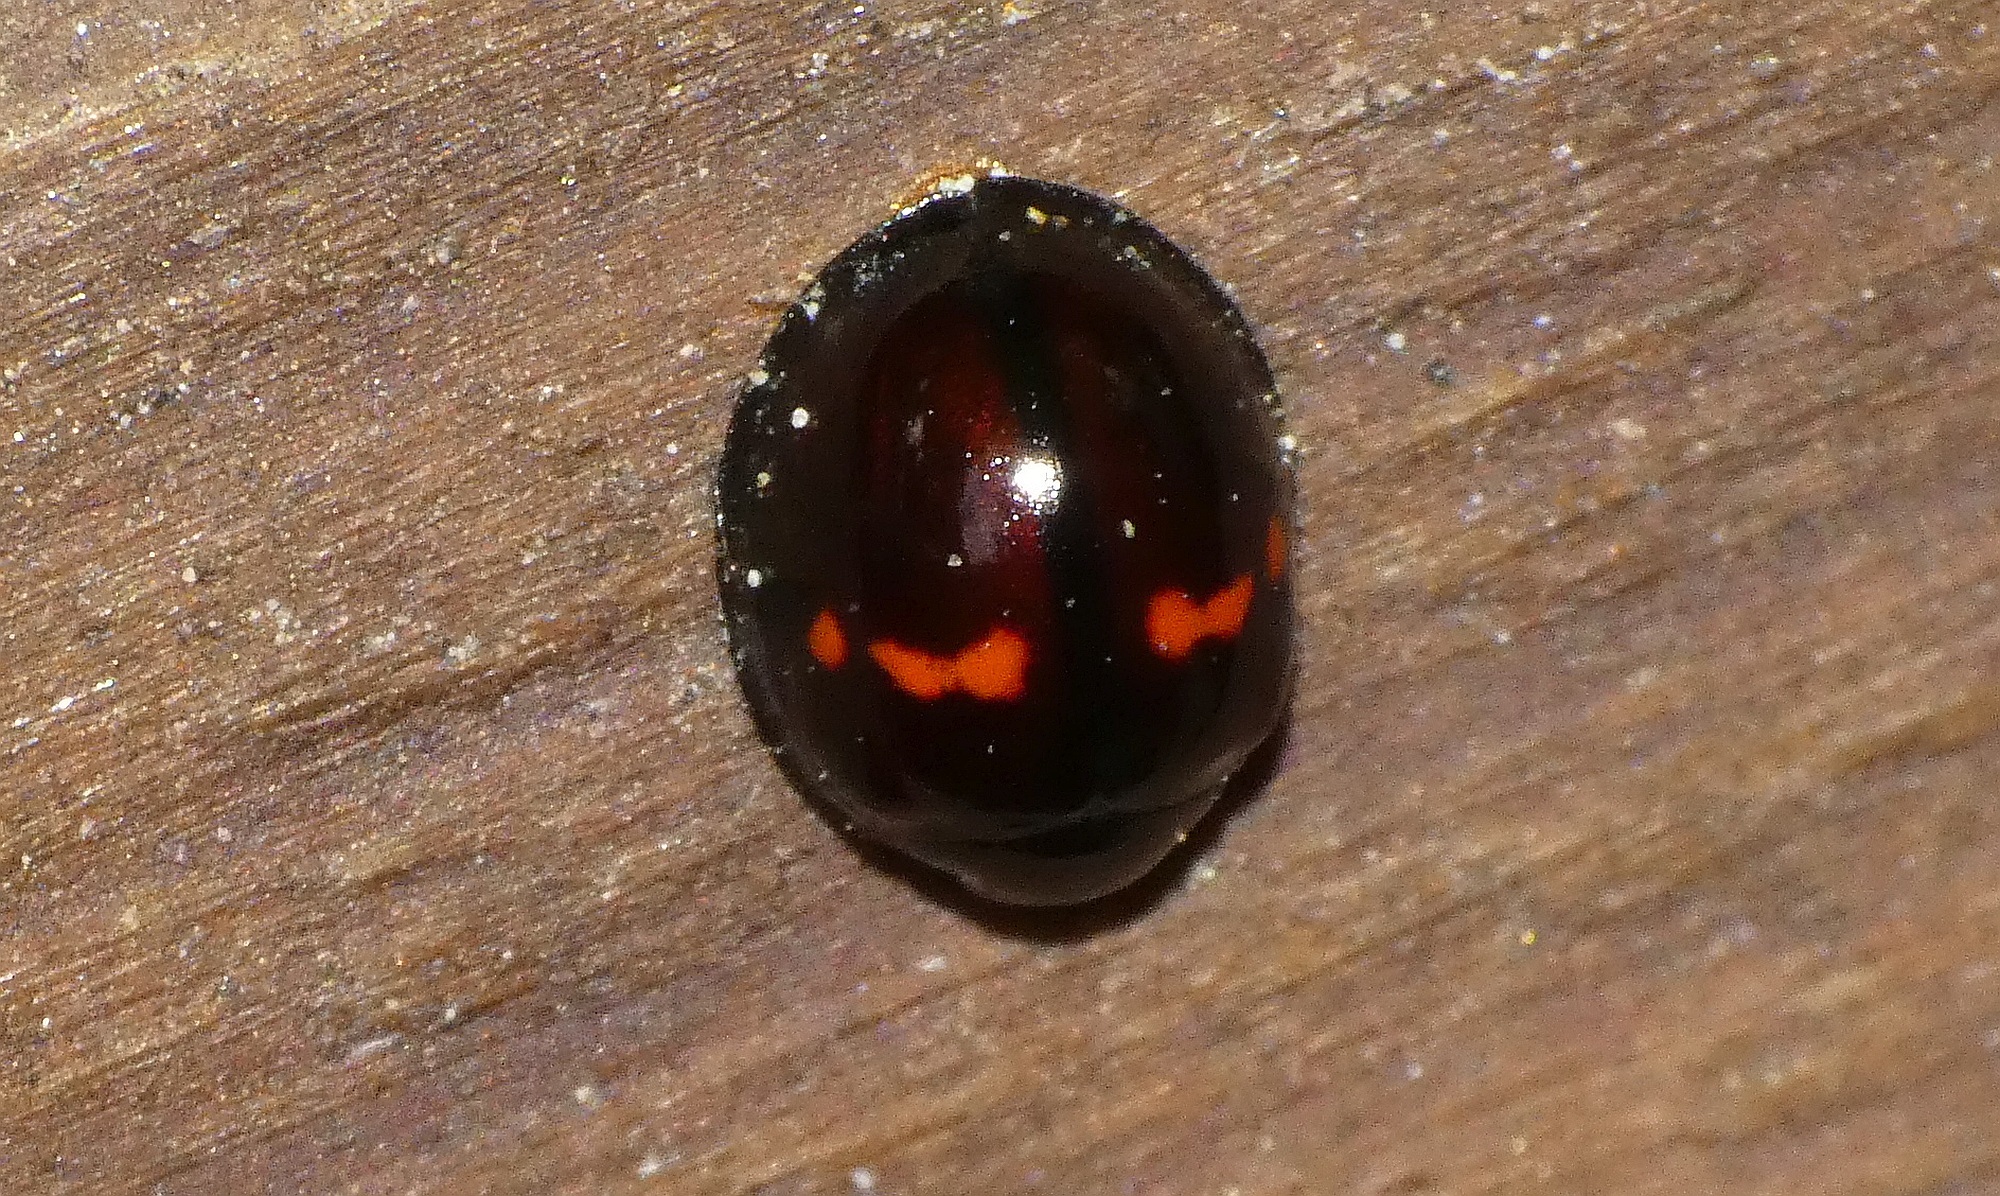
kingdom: Animalia
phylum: Arthropoda
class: Insecta
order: Coleoptera
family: Coccinellidae
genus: Chilocorus
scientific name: Chilocorus bipustulatus
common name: Heather ladybird
